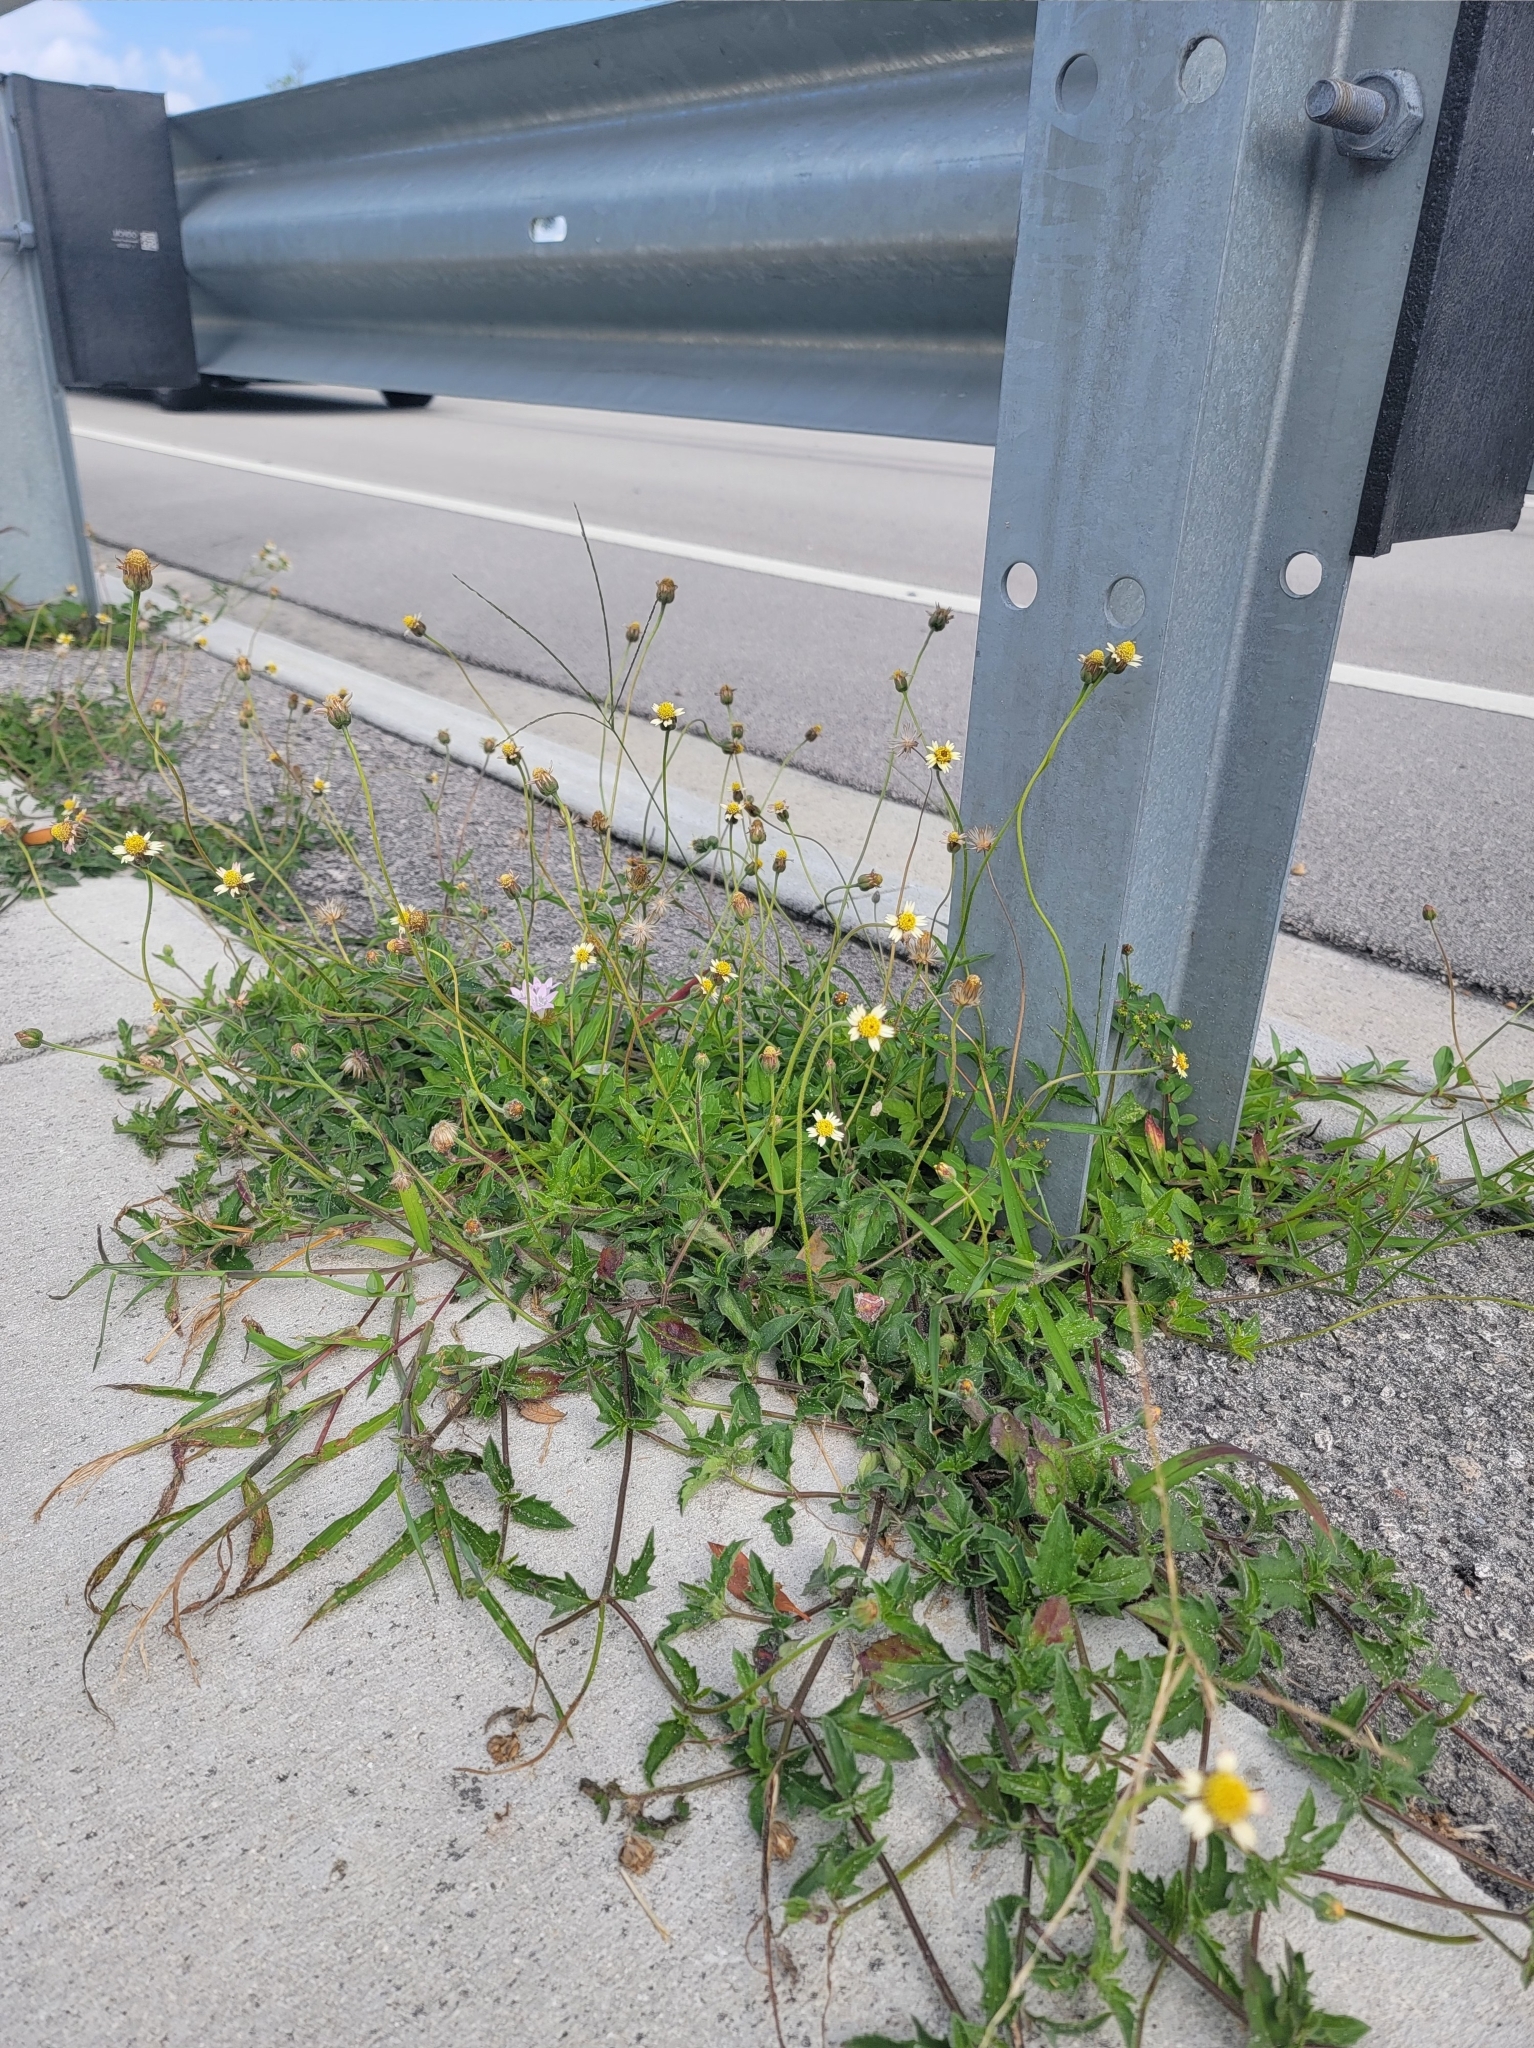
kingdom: Plantae
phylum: Tracheophyta
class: Magnoliopsida
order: Asterales
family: Asteraceae
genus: Tridax
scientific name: Tridax procumbens
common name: Coatbuttons
